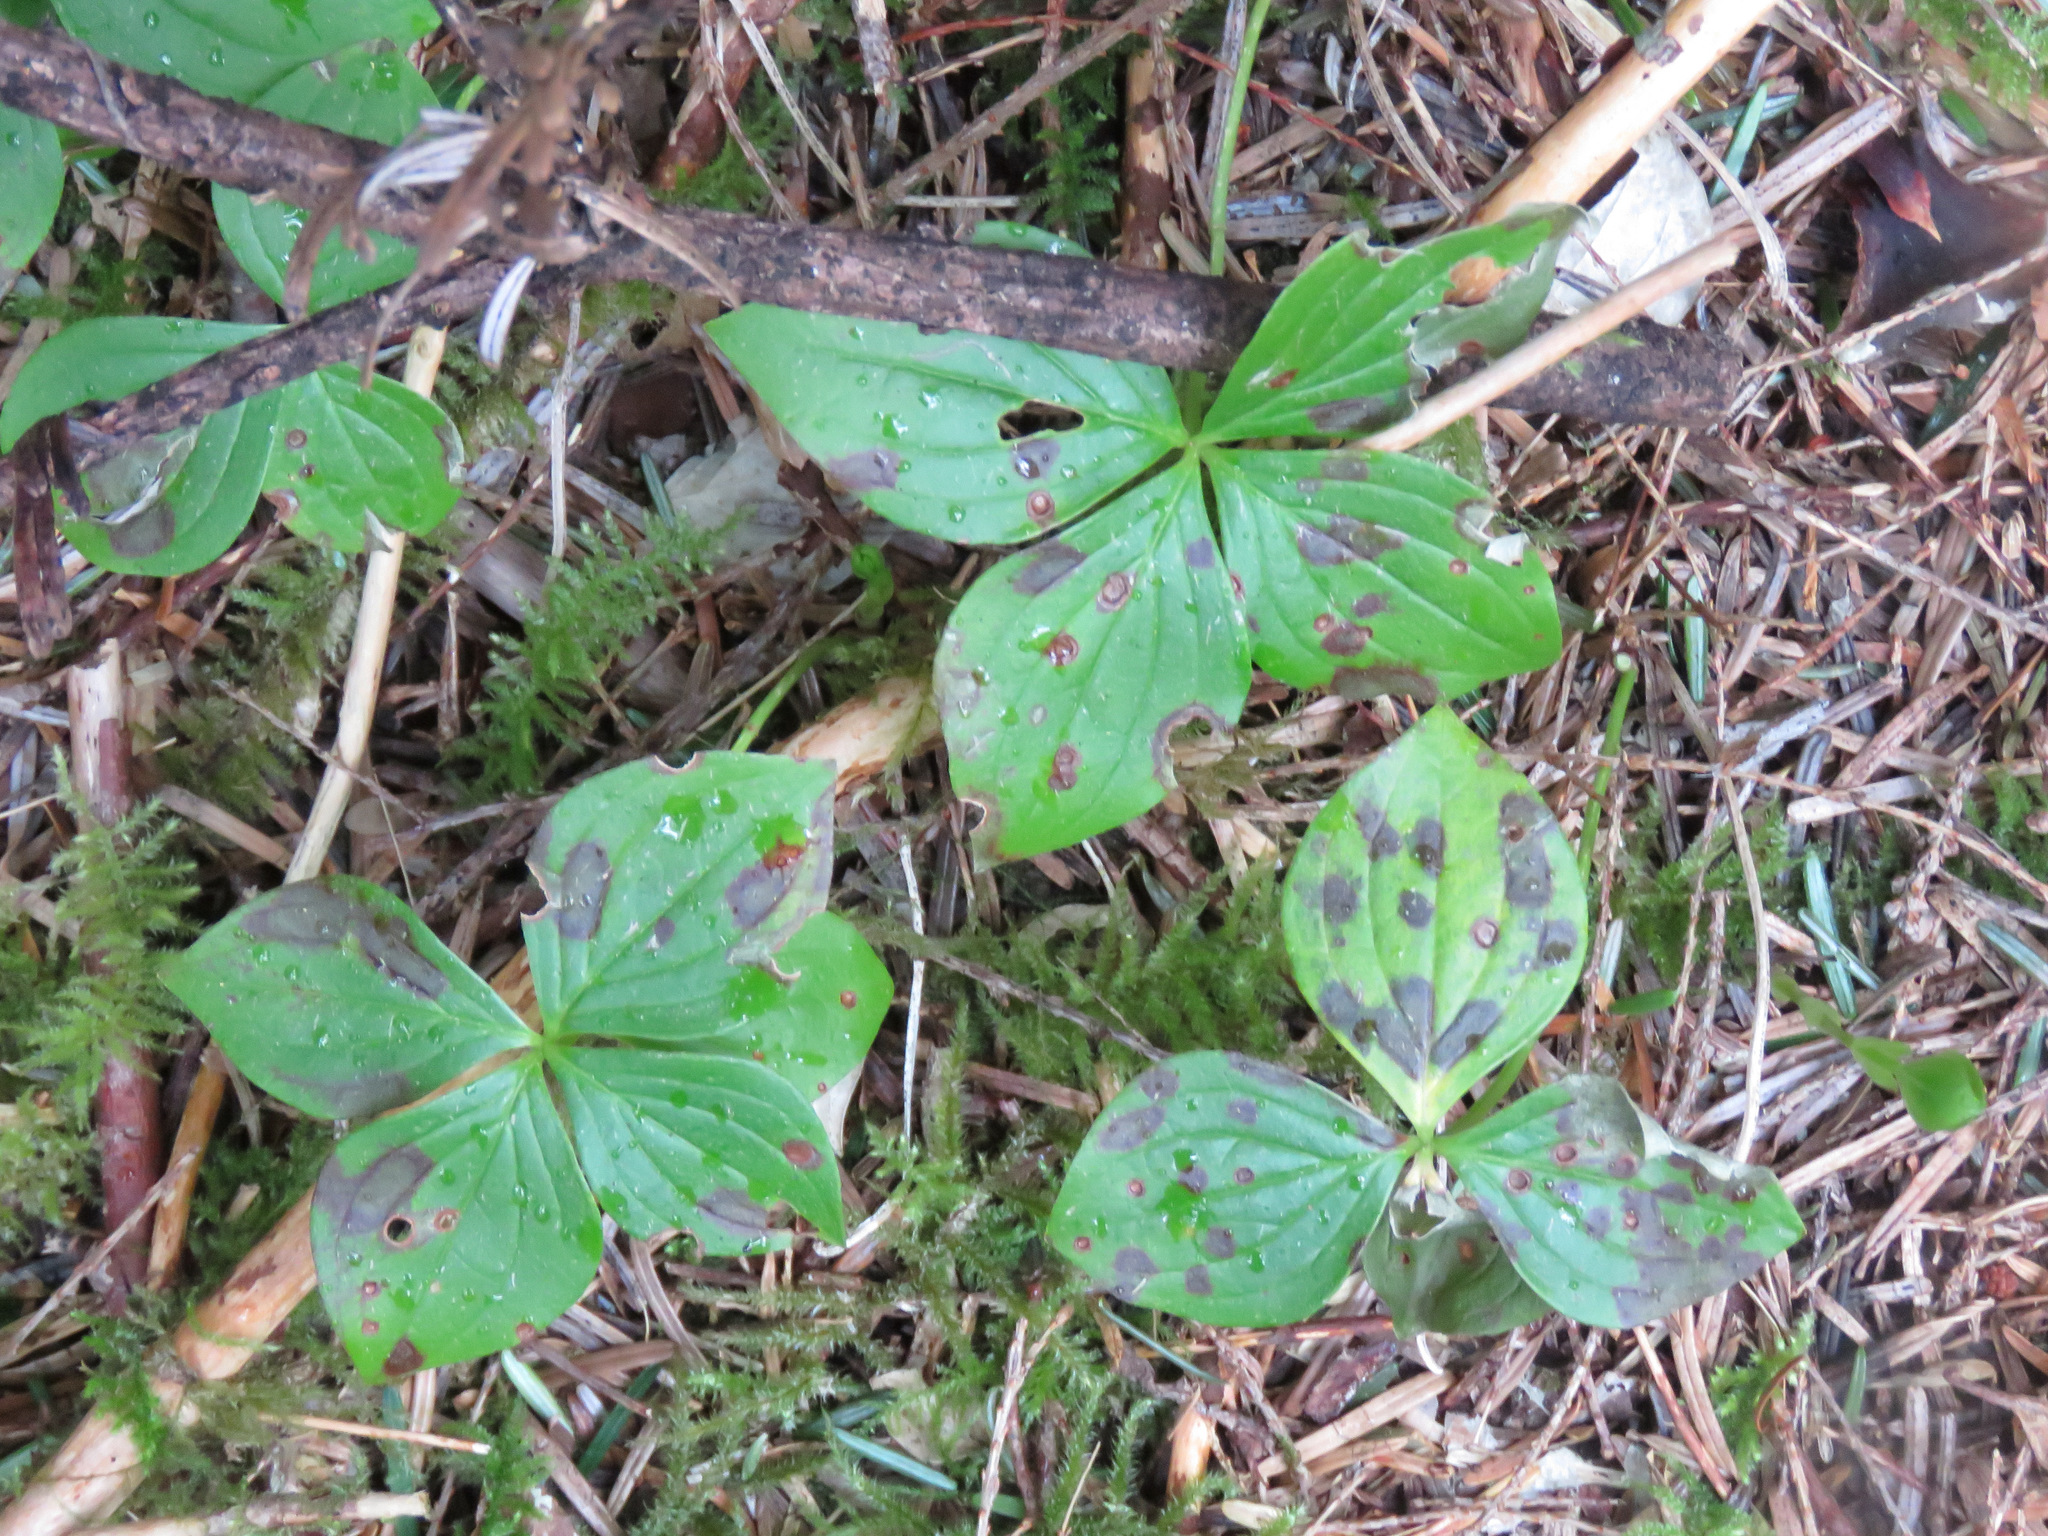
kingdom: Plantae
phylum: Tracheophyta
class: Magnoliopsida
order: Cornales
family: Cornaceae
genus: Cornus
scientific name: Cornus unalaschkensis
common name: Alaska bunchberry
